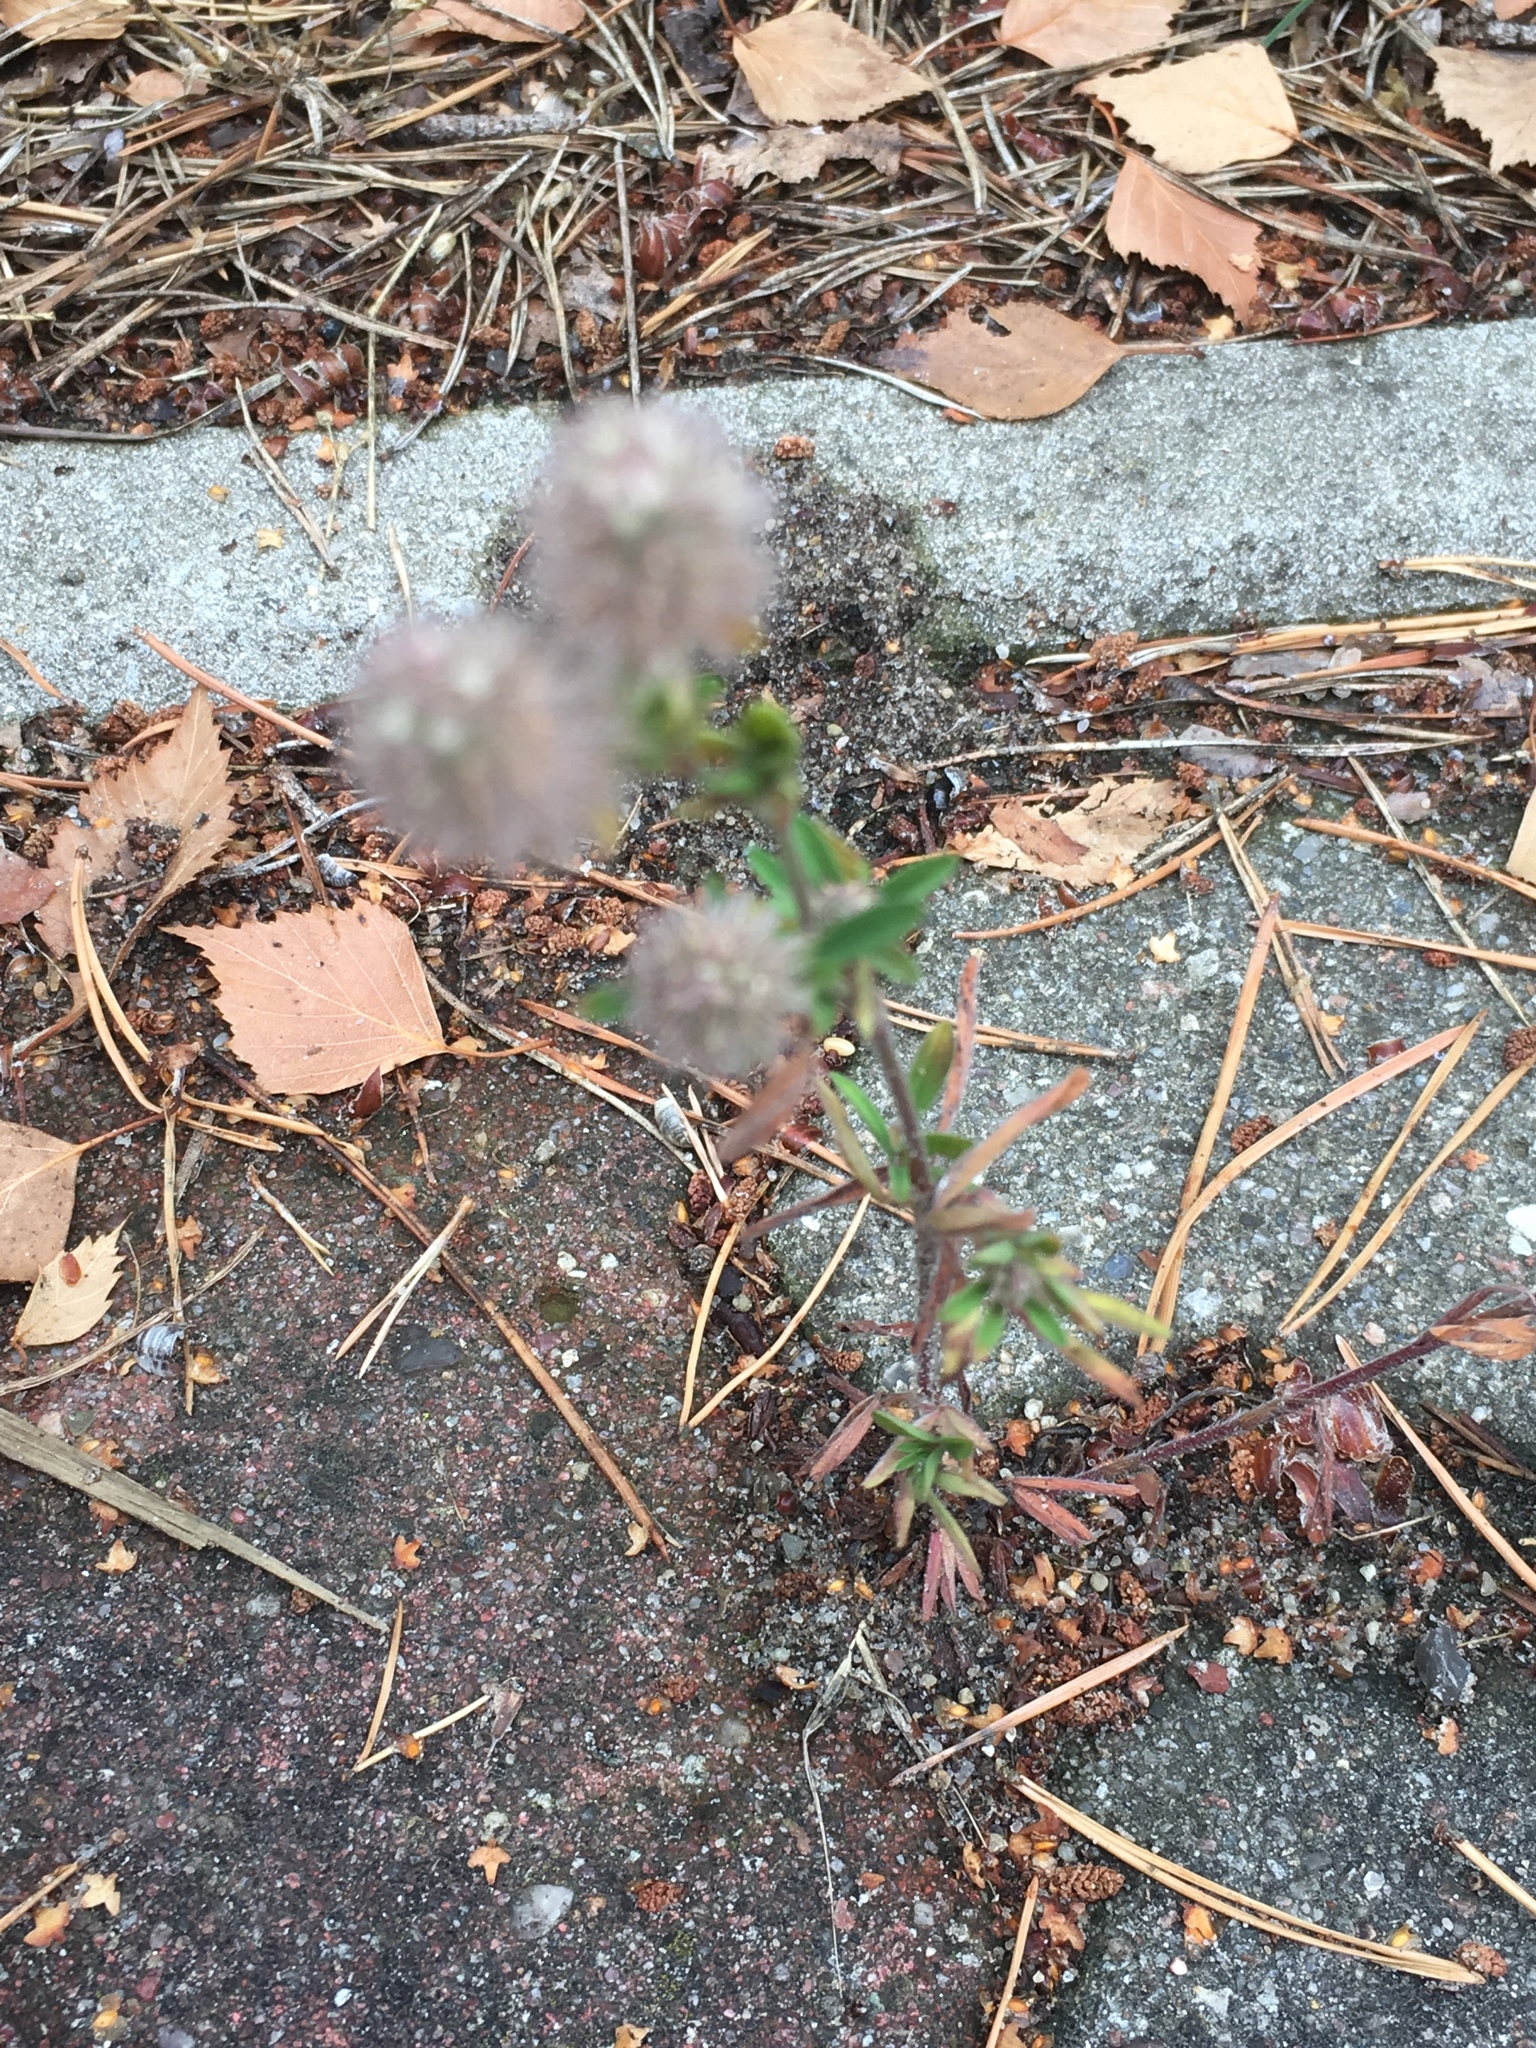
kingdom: Plantae
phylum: Tracheophyta
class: Magnoliopsida
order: Fabales
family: Fabaceae
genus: Trifolium
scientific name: Trifolium arvense
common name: Hare's-foot clover
